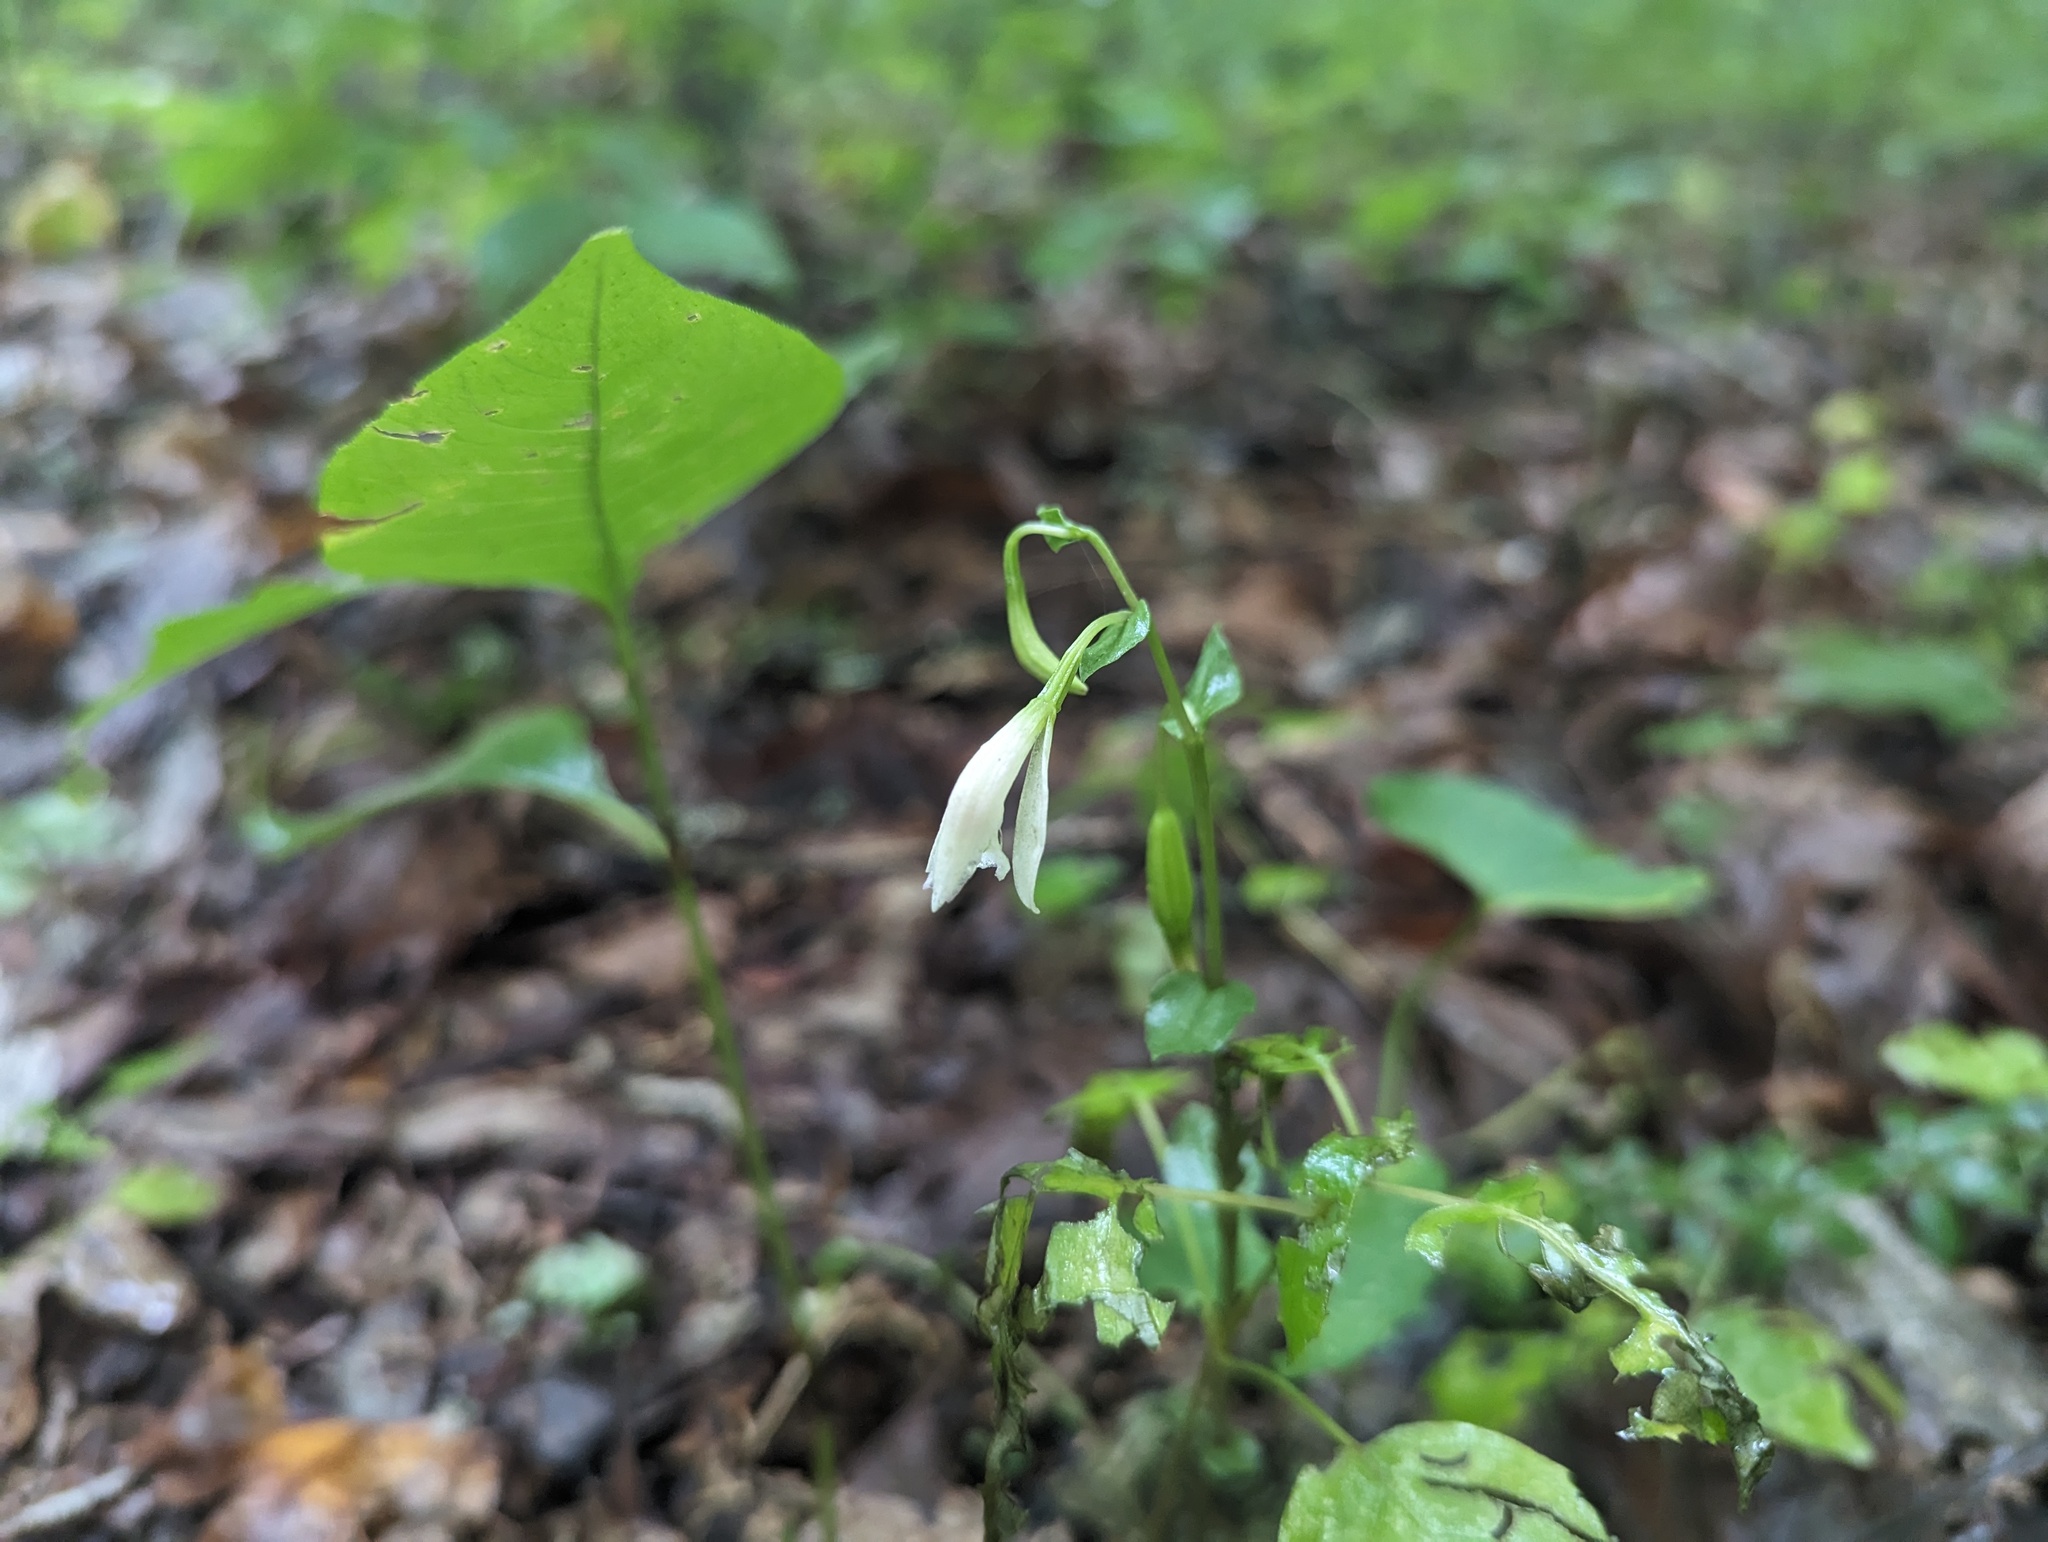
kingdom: Plantae
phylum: Tracheophyta
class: Liliopsida
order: Asparagales
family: Orchidaceae
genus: Triphora
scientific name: Triphora trianthophoros
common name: Three birds orchid
